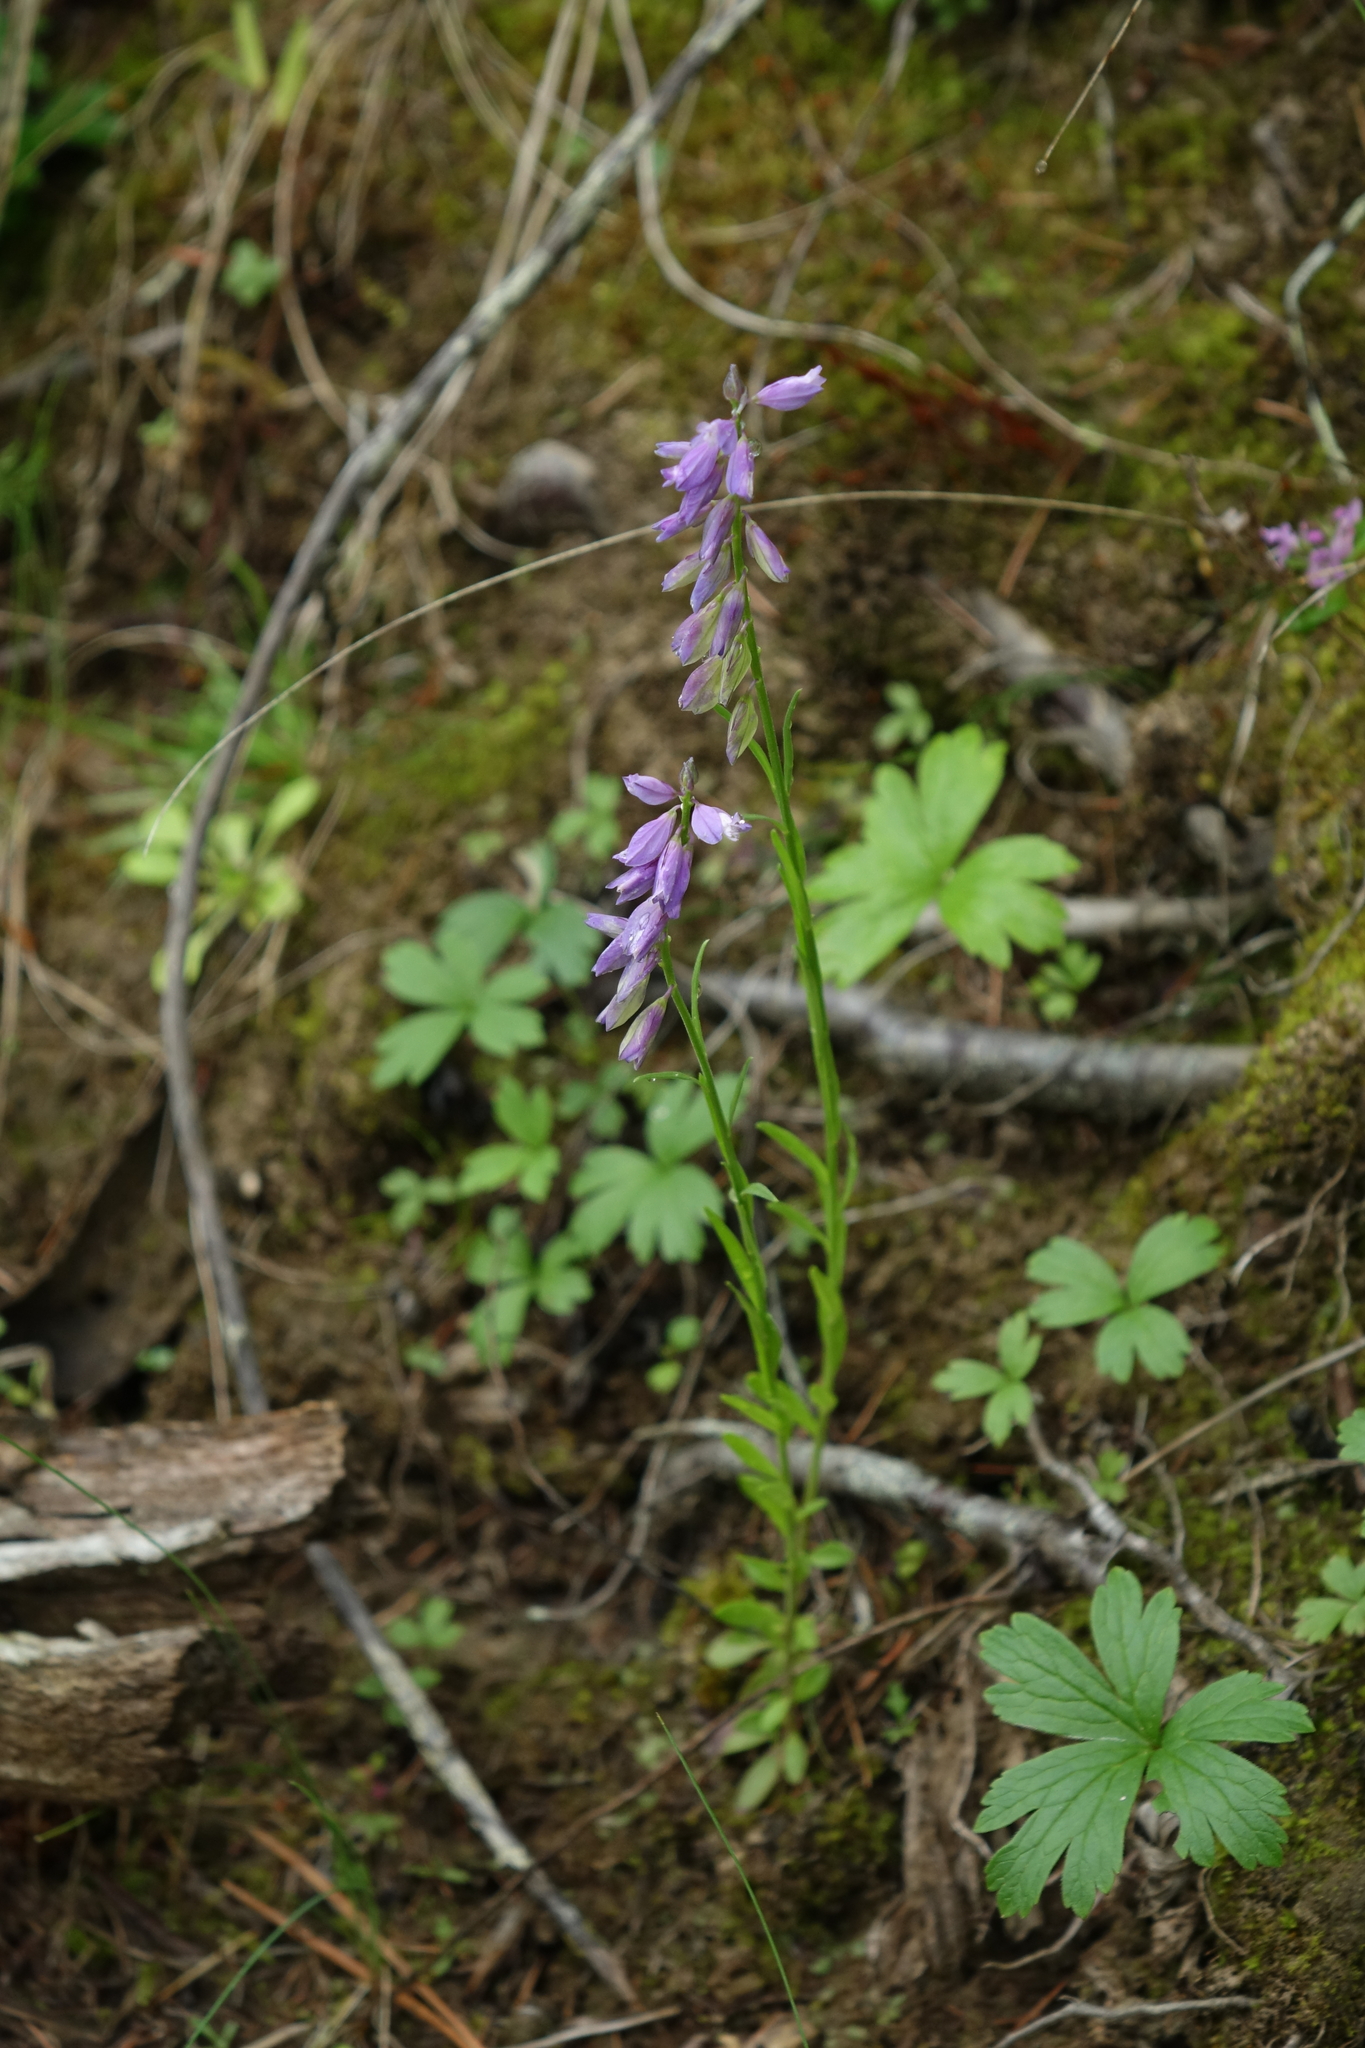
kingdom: Plantae
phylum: Tracheophyta
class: Magnoliopsida
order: Fabales
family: Polygalaceae
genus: Polygala
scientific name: Polygala comosa
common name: Tufted milkwort
